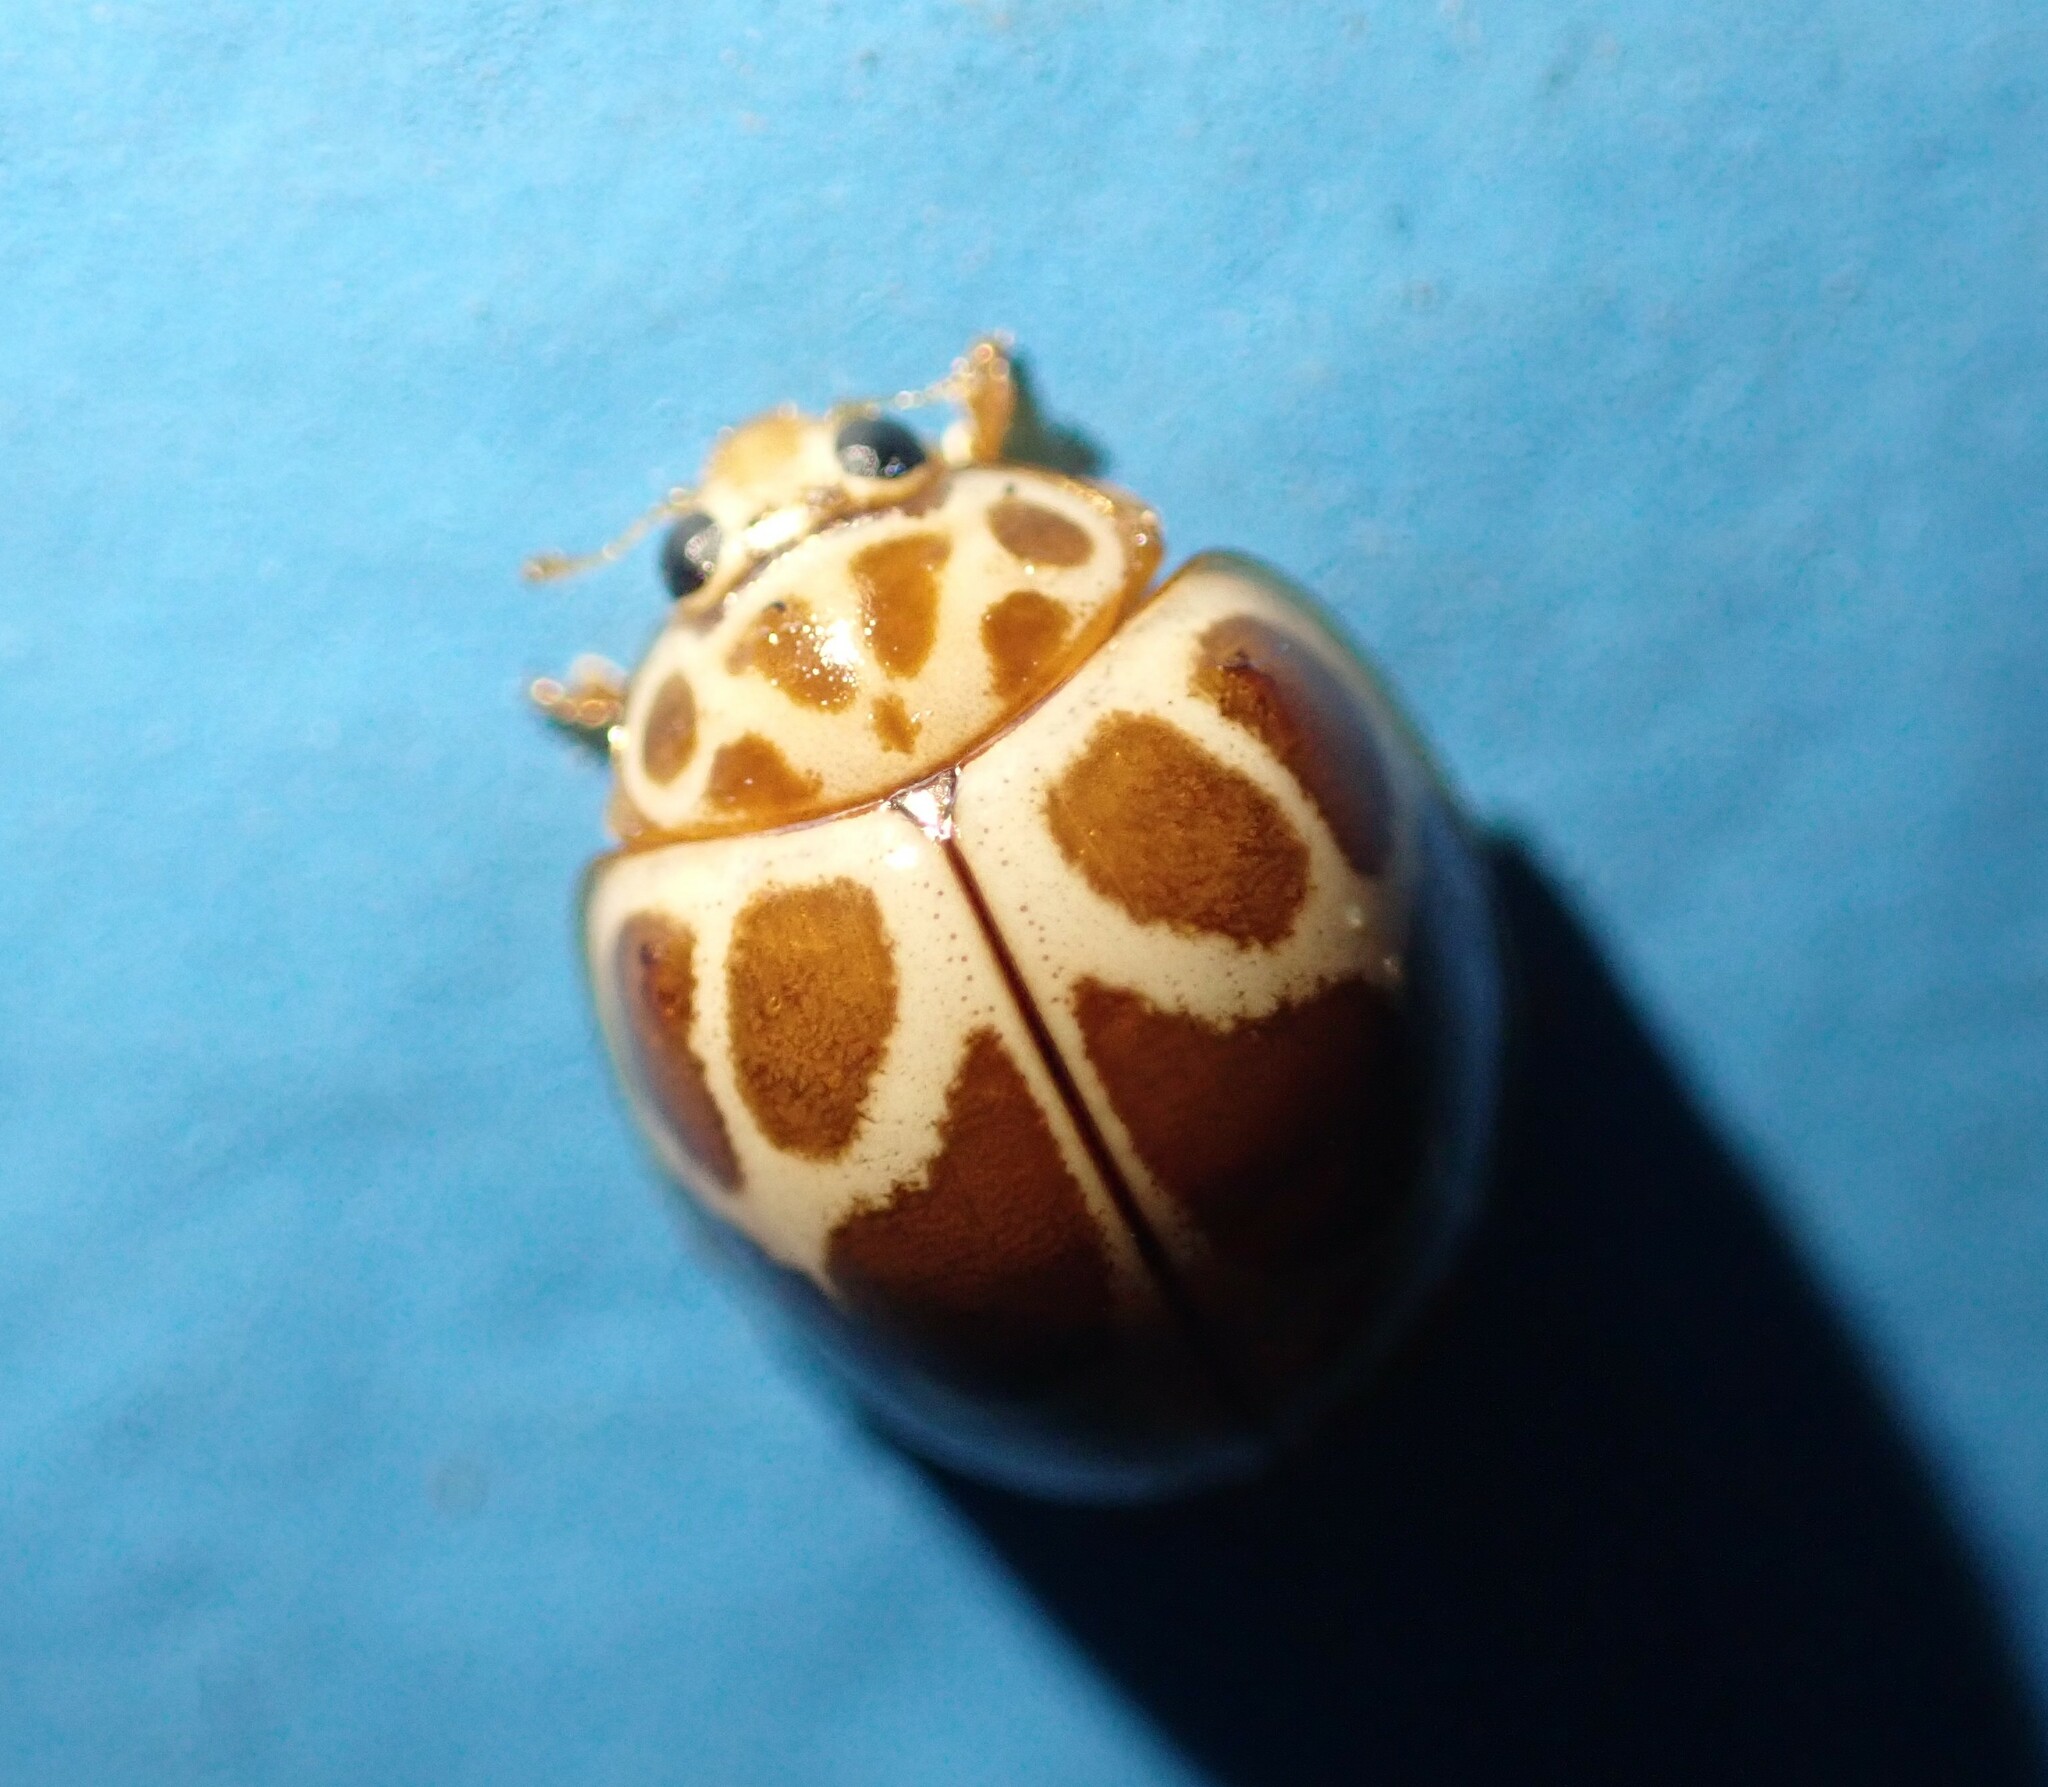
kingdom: Animalia
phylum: Arthropoda
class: Insecta
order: Coleoptera
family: Coccinellidae
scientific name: Coccinellidae
